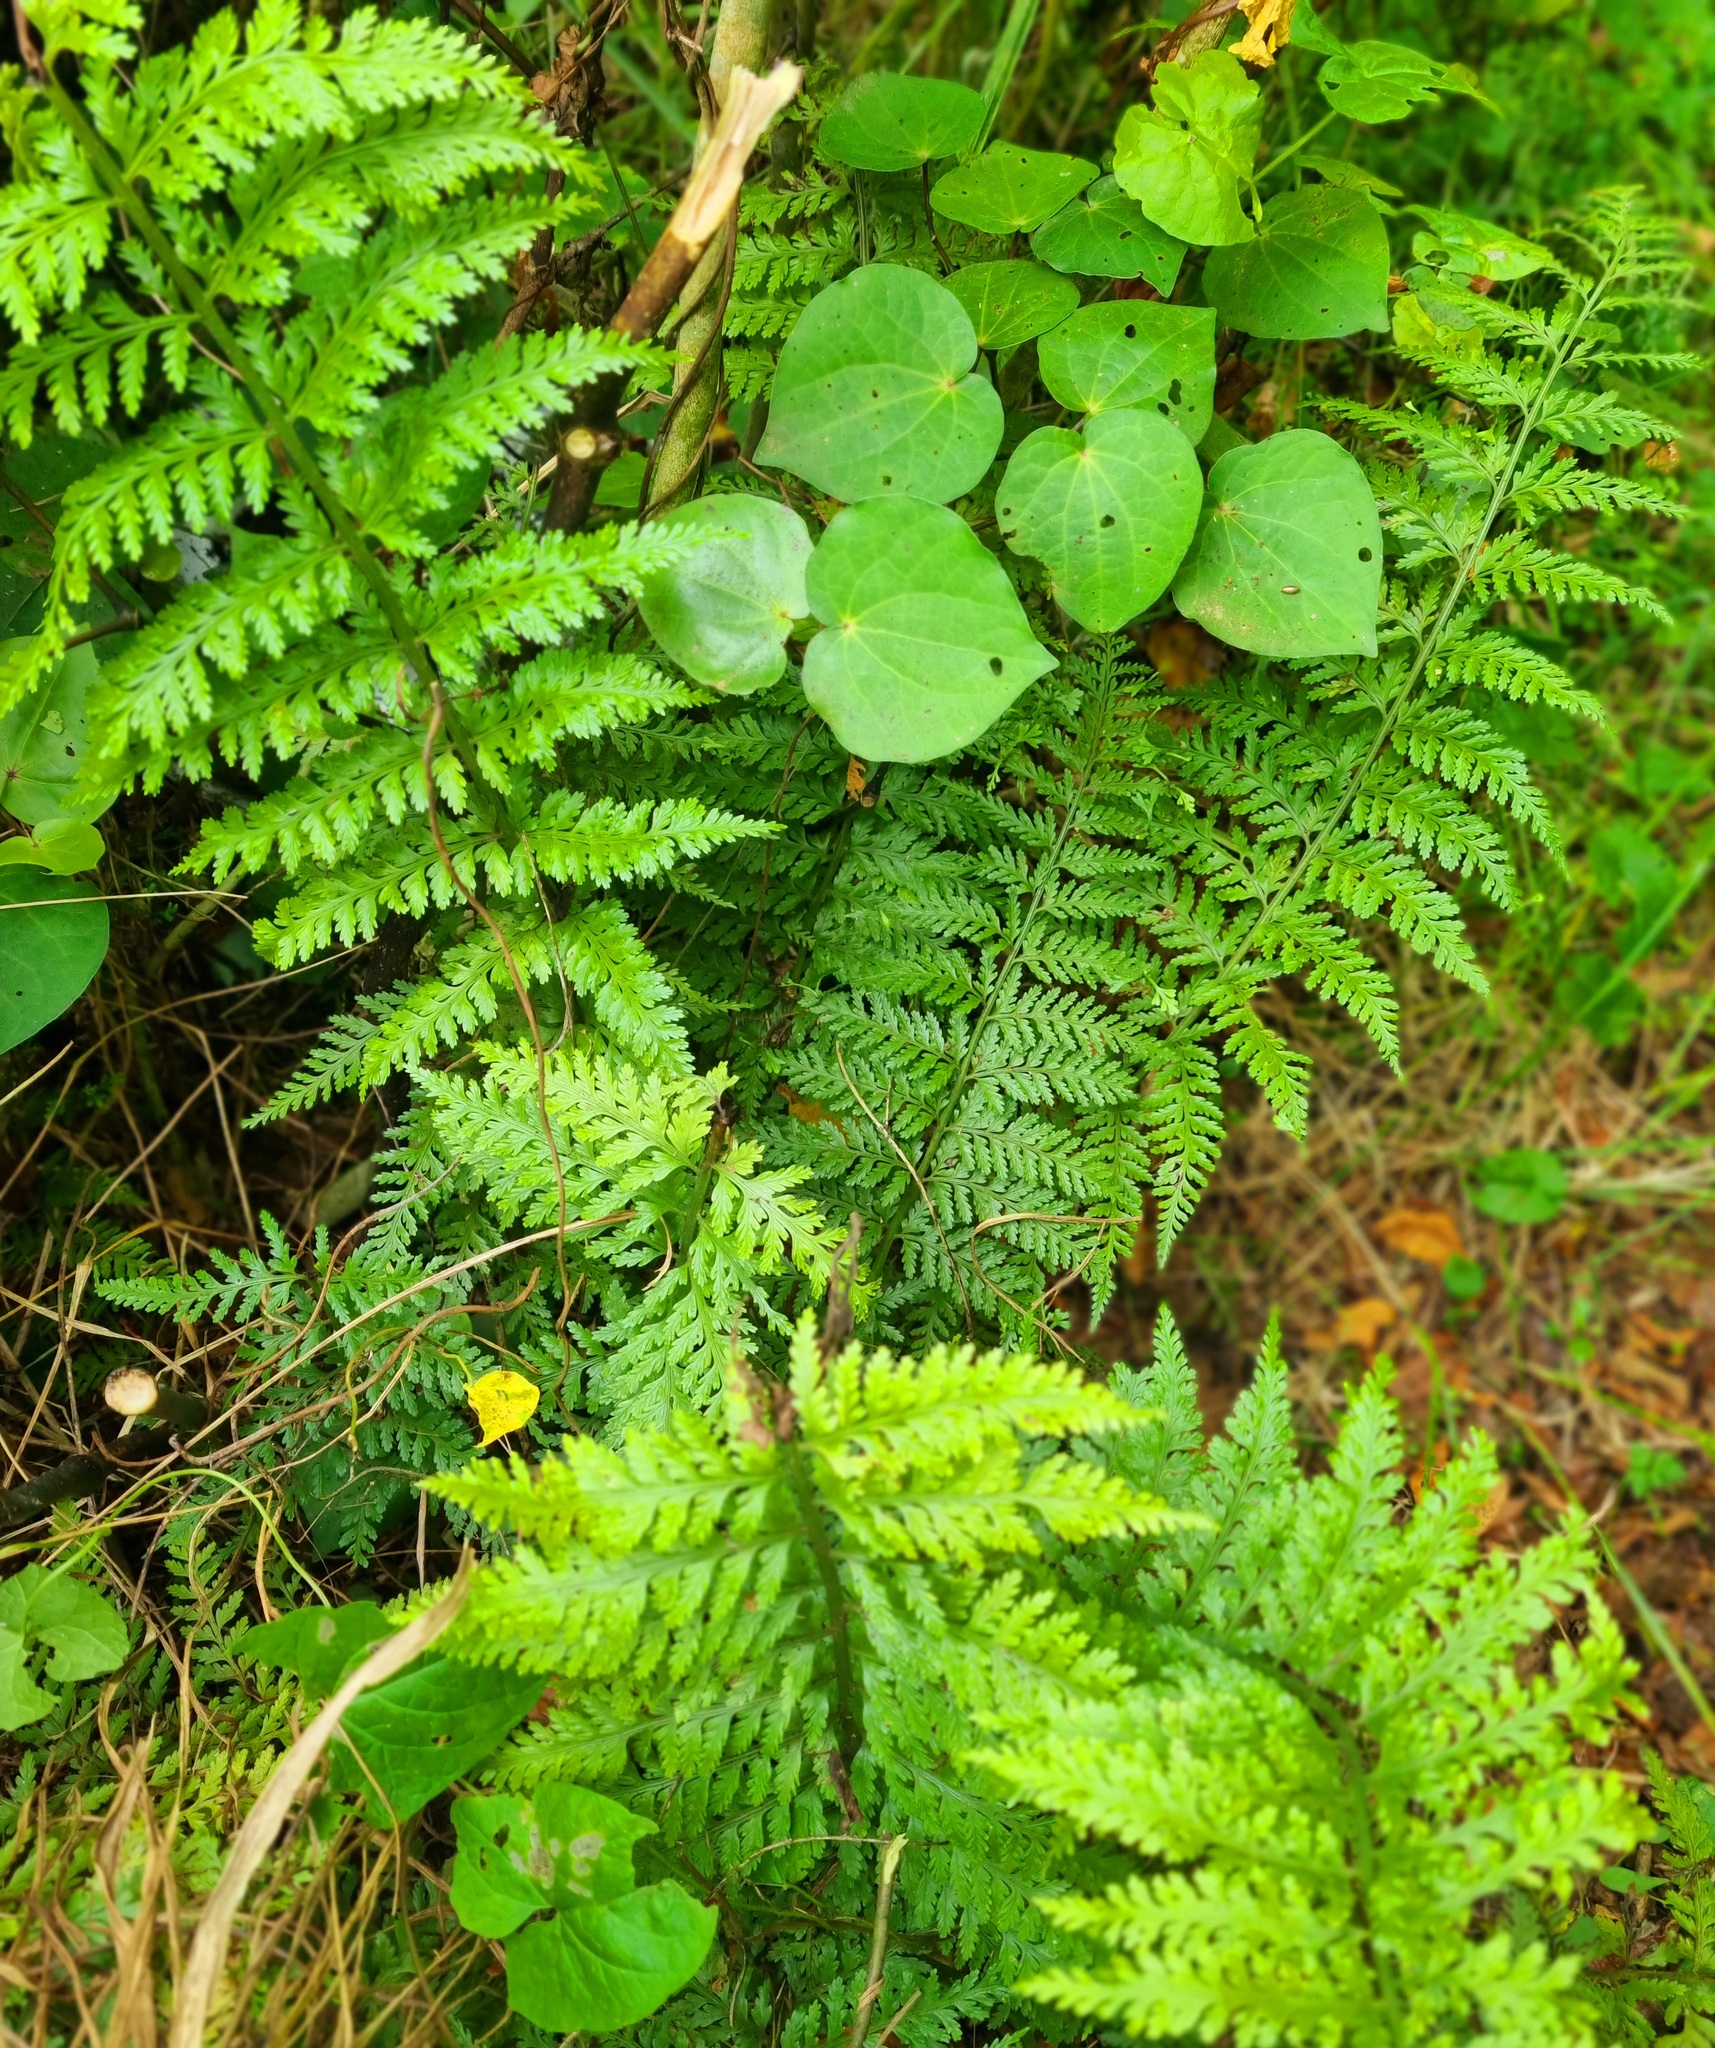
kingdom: Plantae
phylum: Tracheophyta
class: Polypodiopsida
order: Polypodiales
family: Aspleniaceae
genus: Asplenium
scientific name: Asplenium bulbiferum
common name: Mother fern
